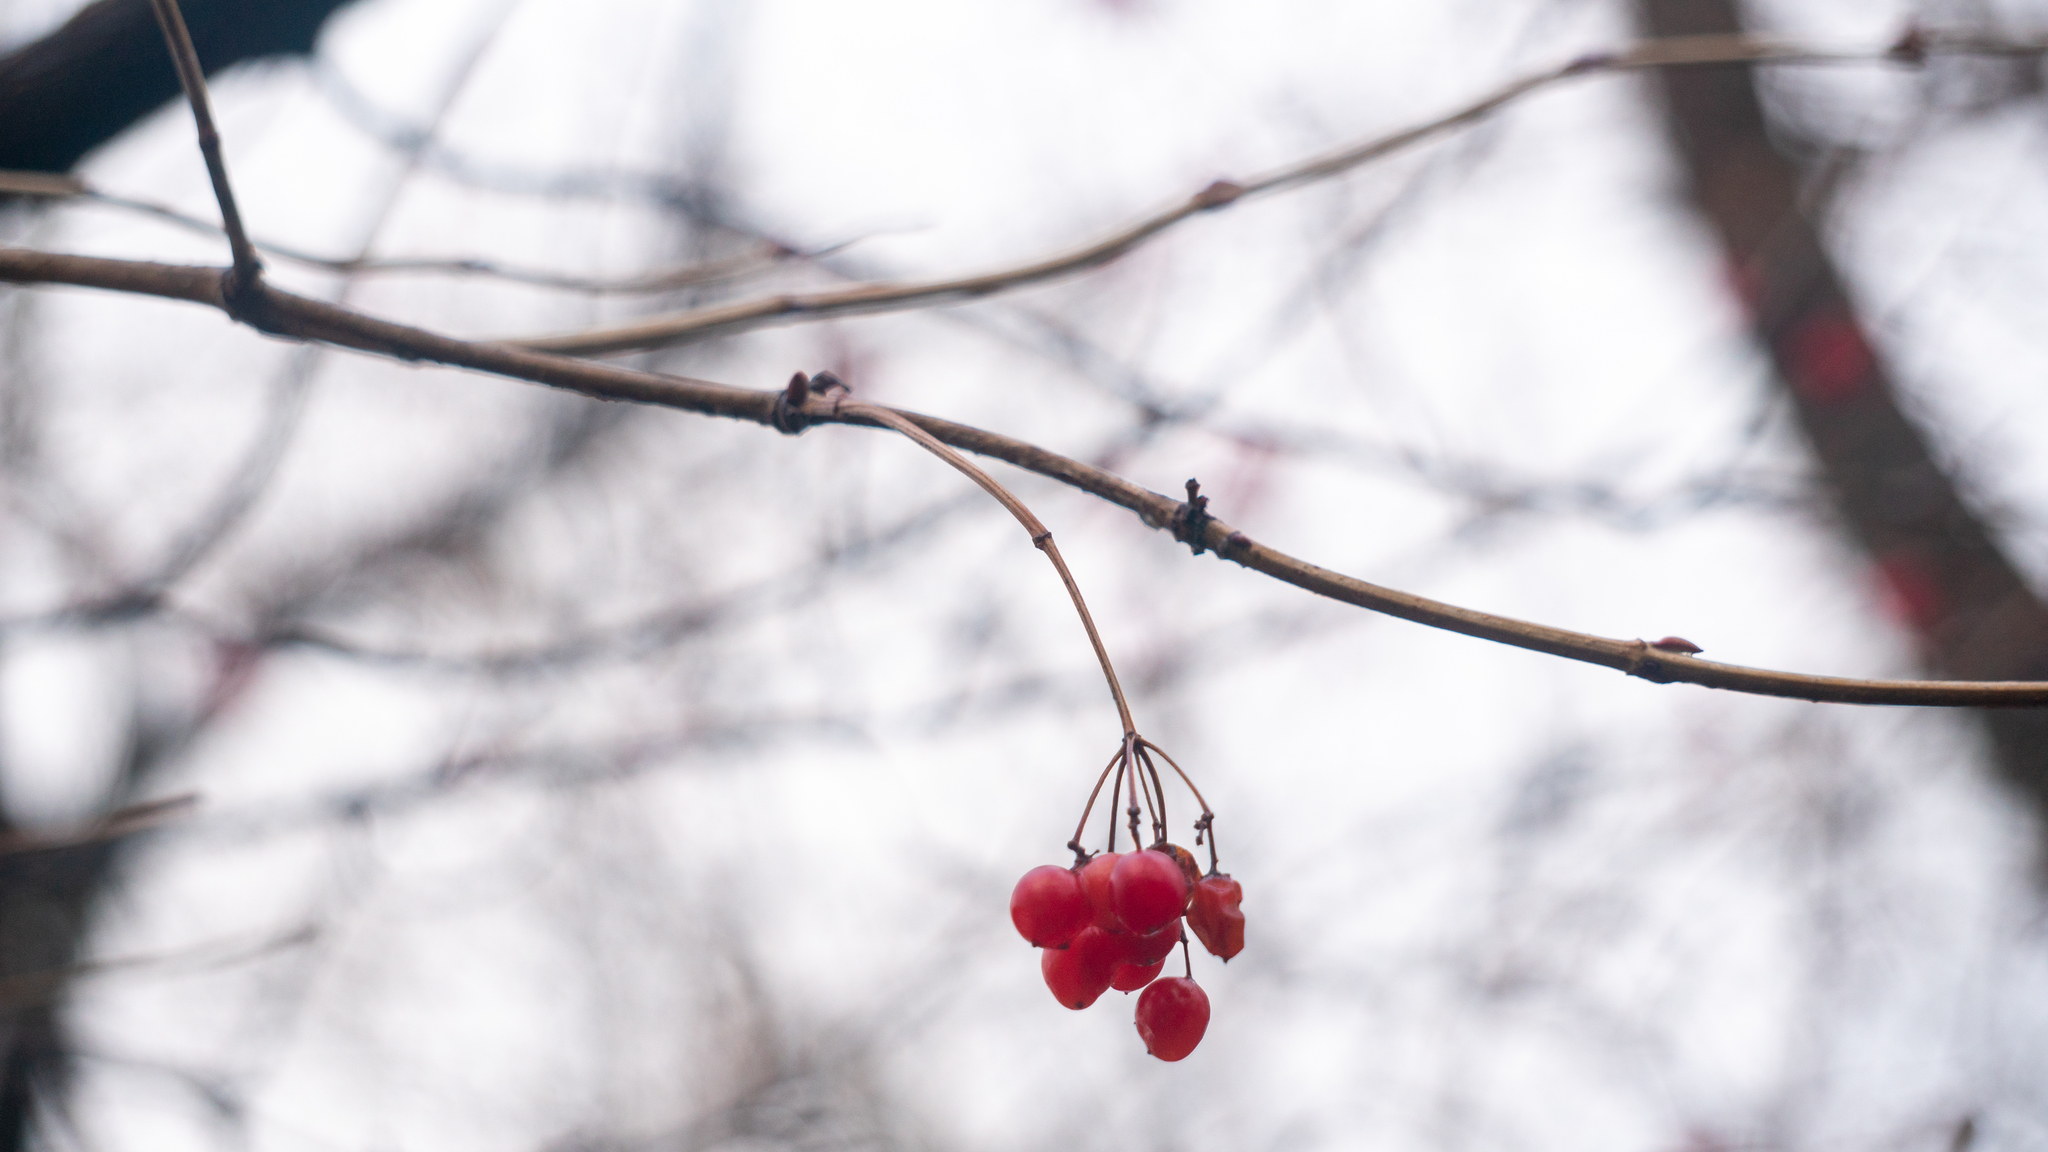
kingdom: Plantae
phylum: Tracheophyta
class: Magnoliopsida
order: Dipsacales
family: Viburnaceae
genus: Viburnum
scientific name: Viburnum opulus
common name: Guelder-rose
